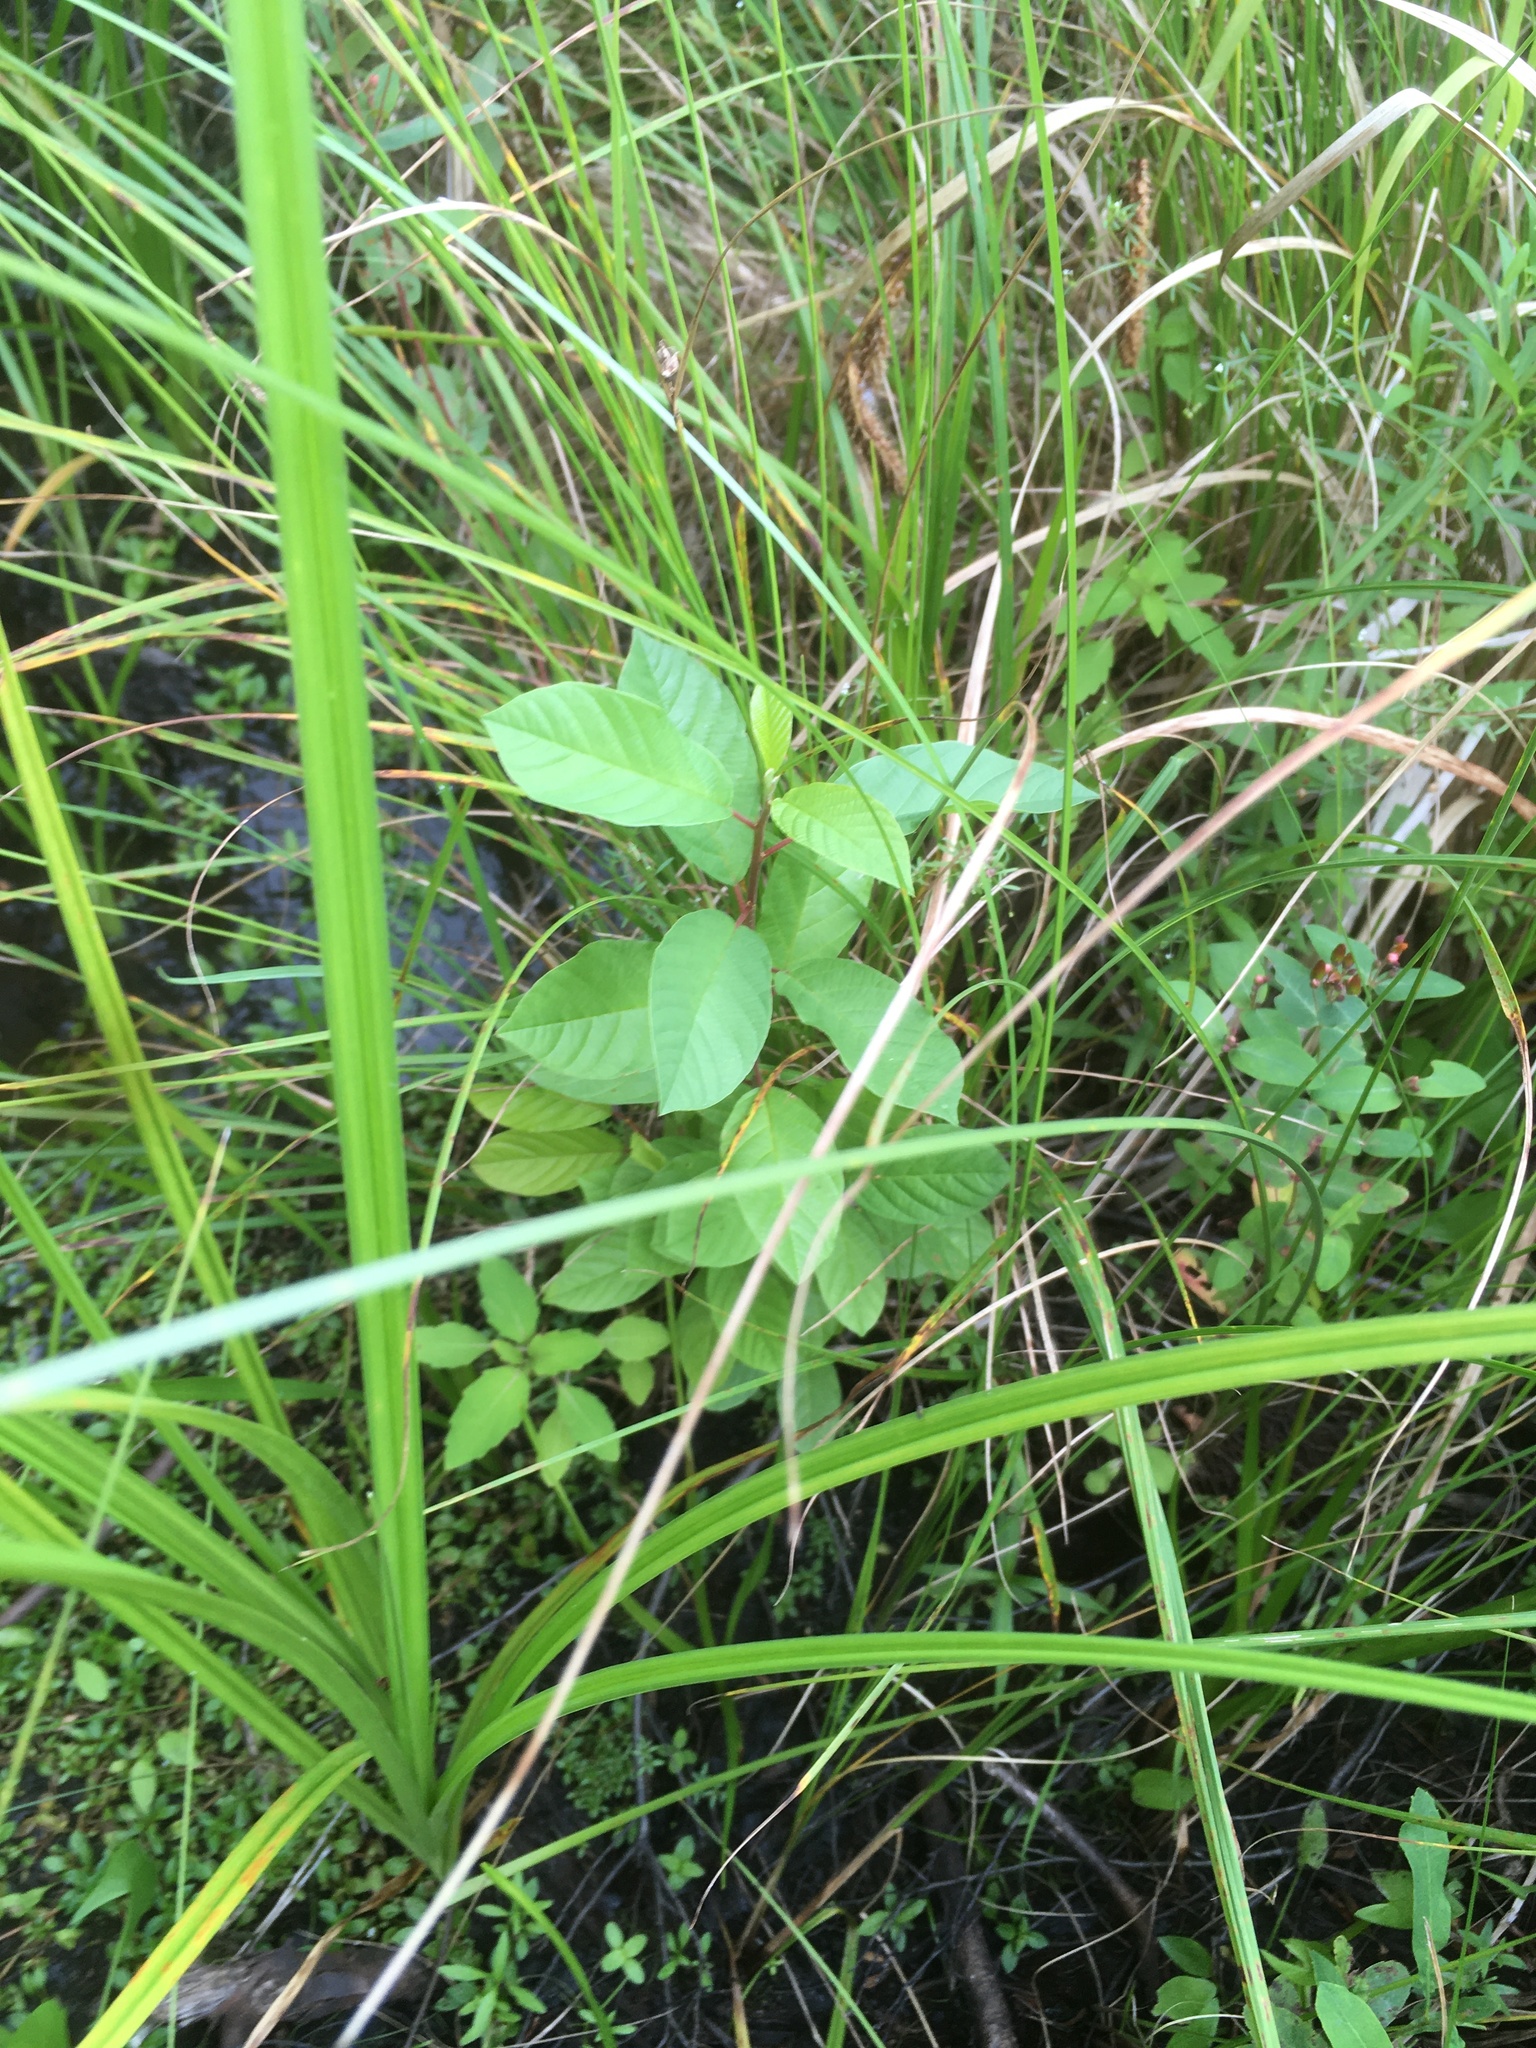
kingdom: Plantae
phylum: Tracheophyta
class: Magnoliopsida
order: Rosales
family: Rhamnaceae
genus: Frangula
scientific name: Frangula alnus
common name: Alder buckthorn
